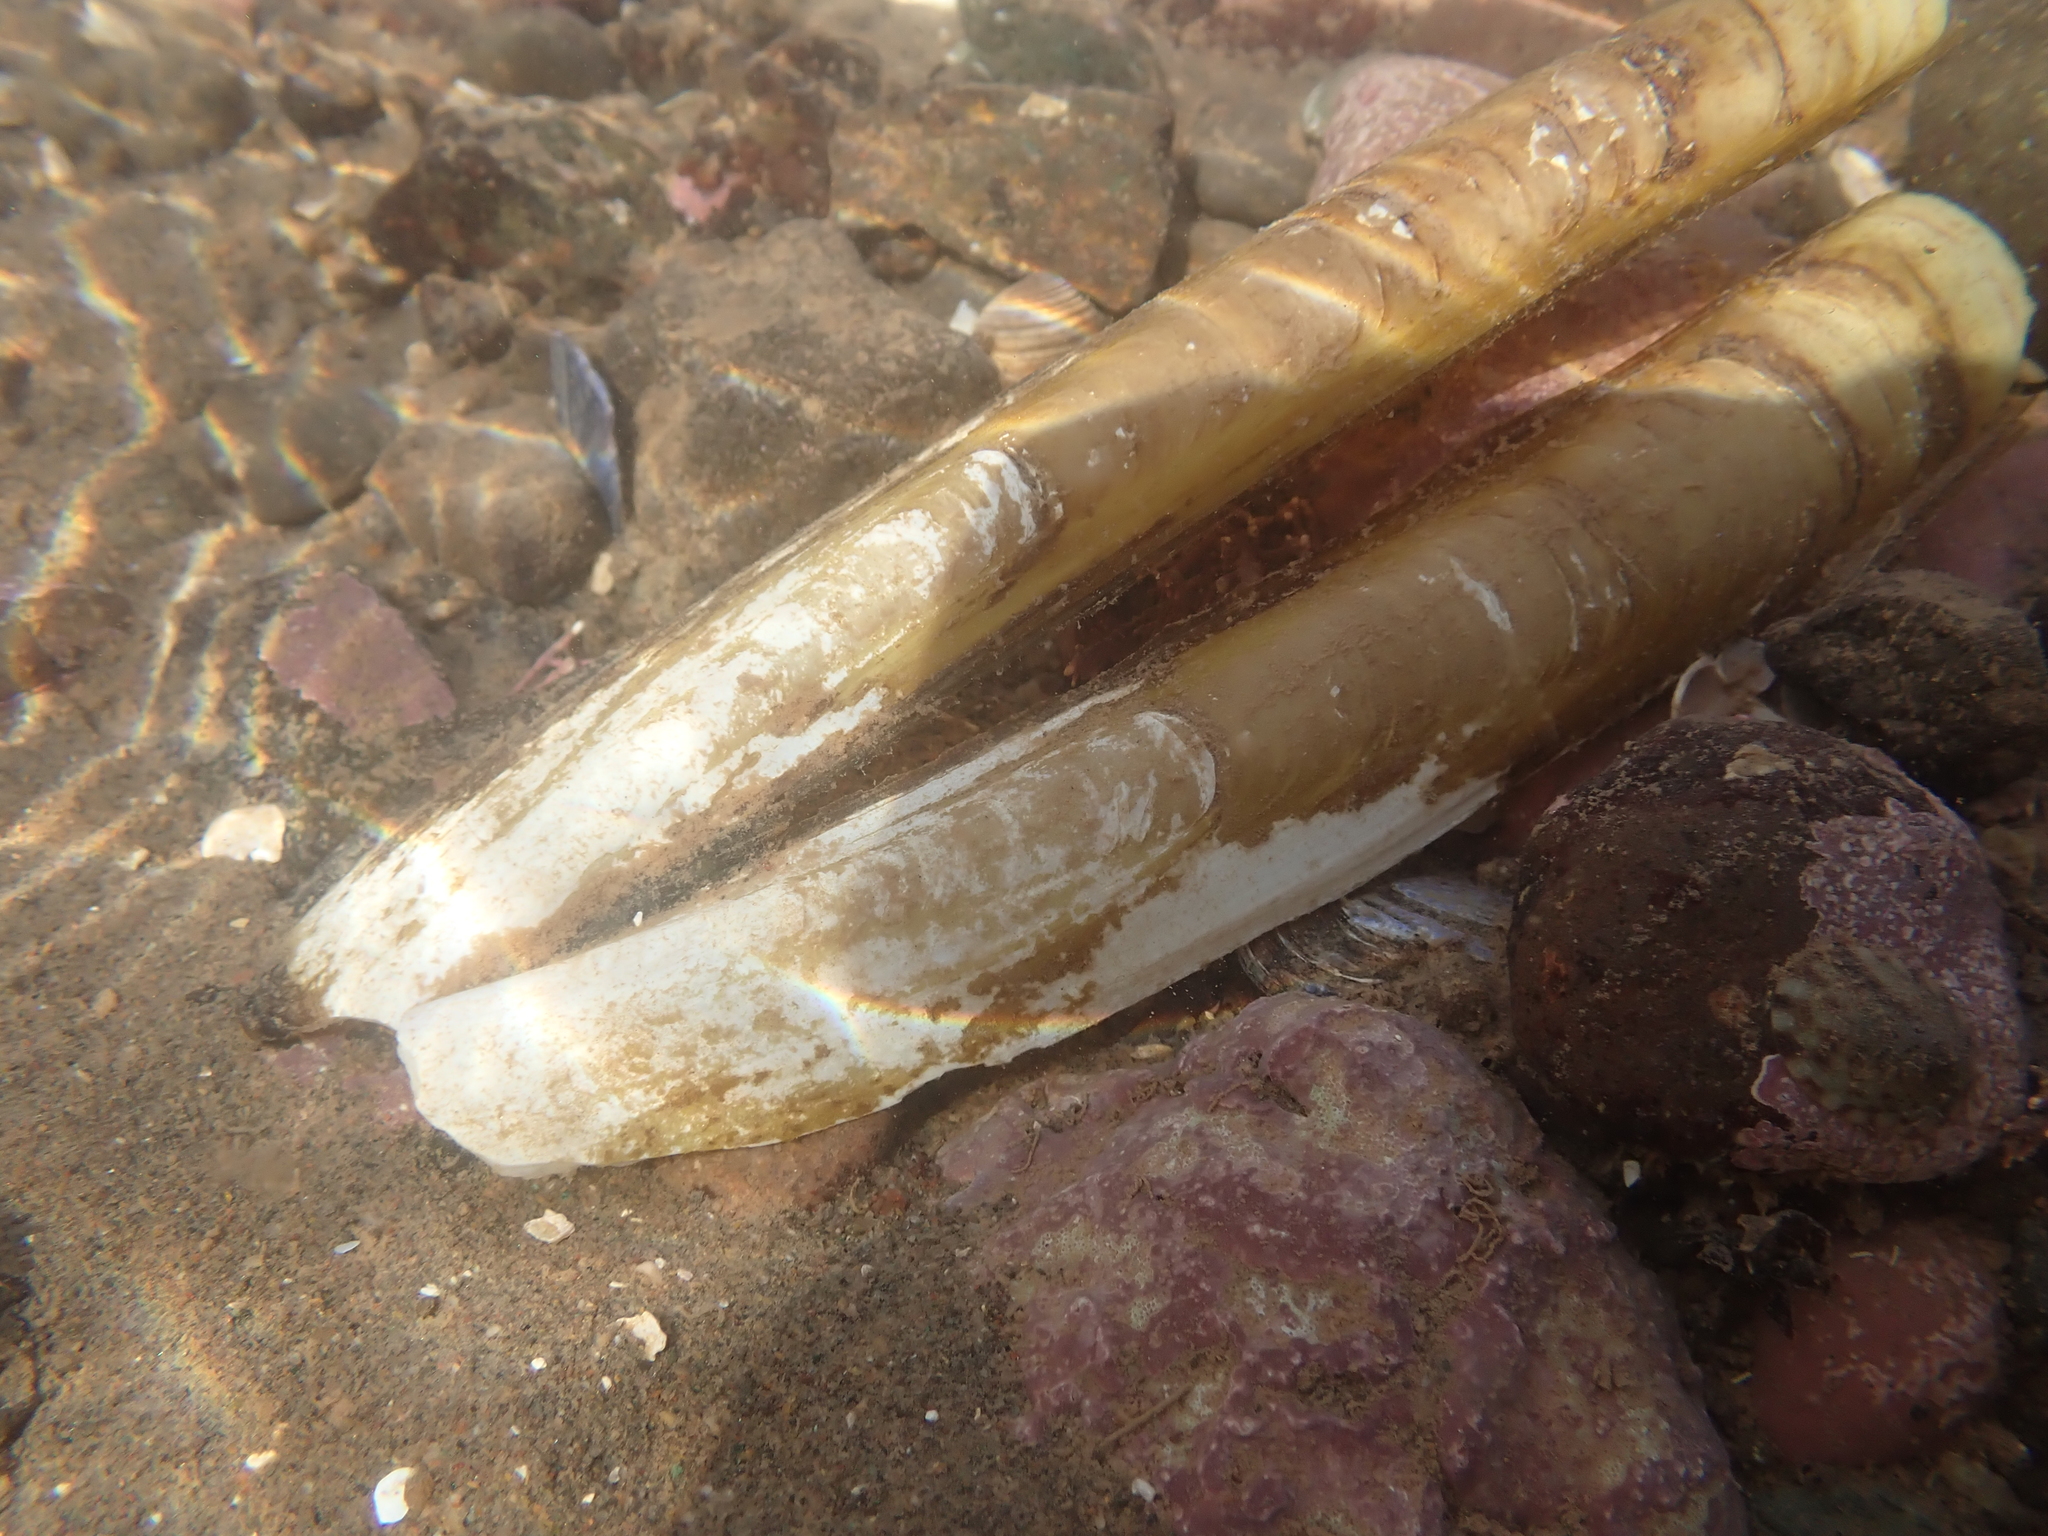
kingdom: Animalia
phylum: Mollusca
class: Bivalvia
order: Adapedonta
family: Pharidae
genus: Ensis
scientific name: Ensis leei
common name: American jack knife clam
